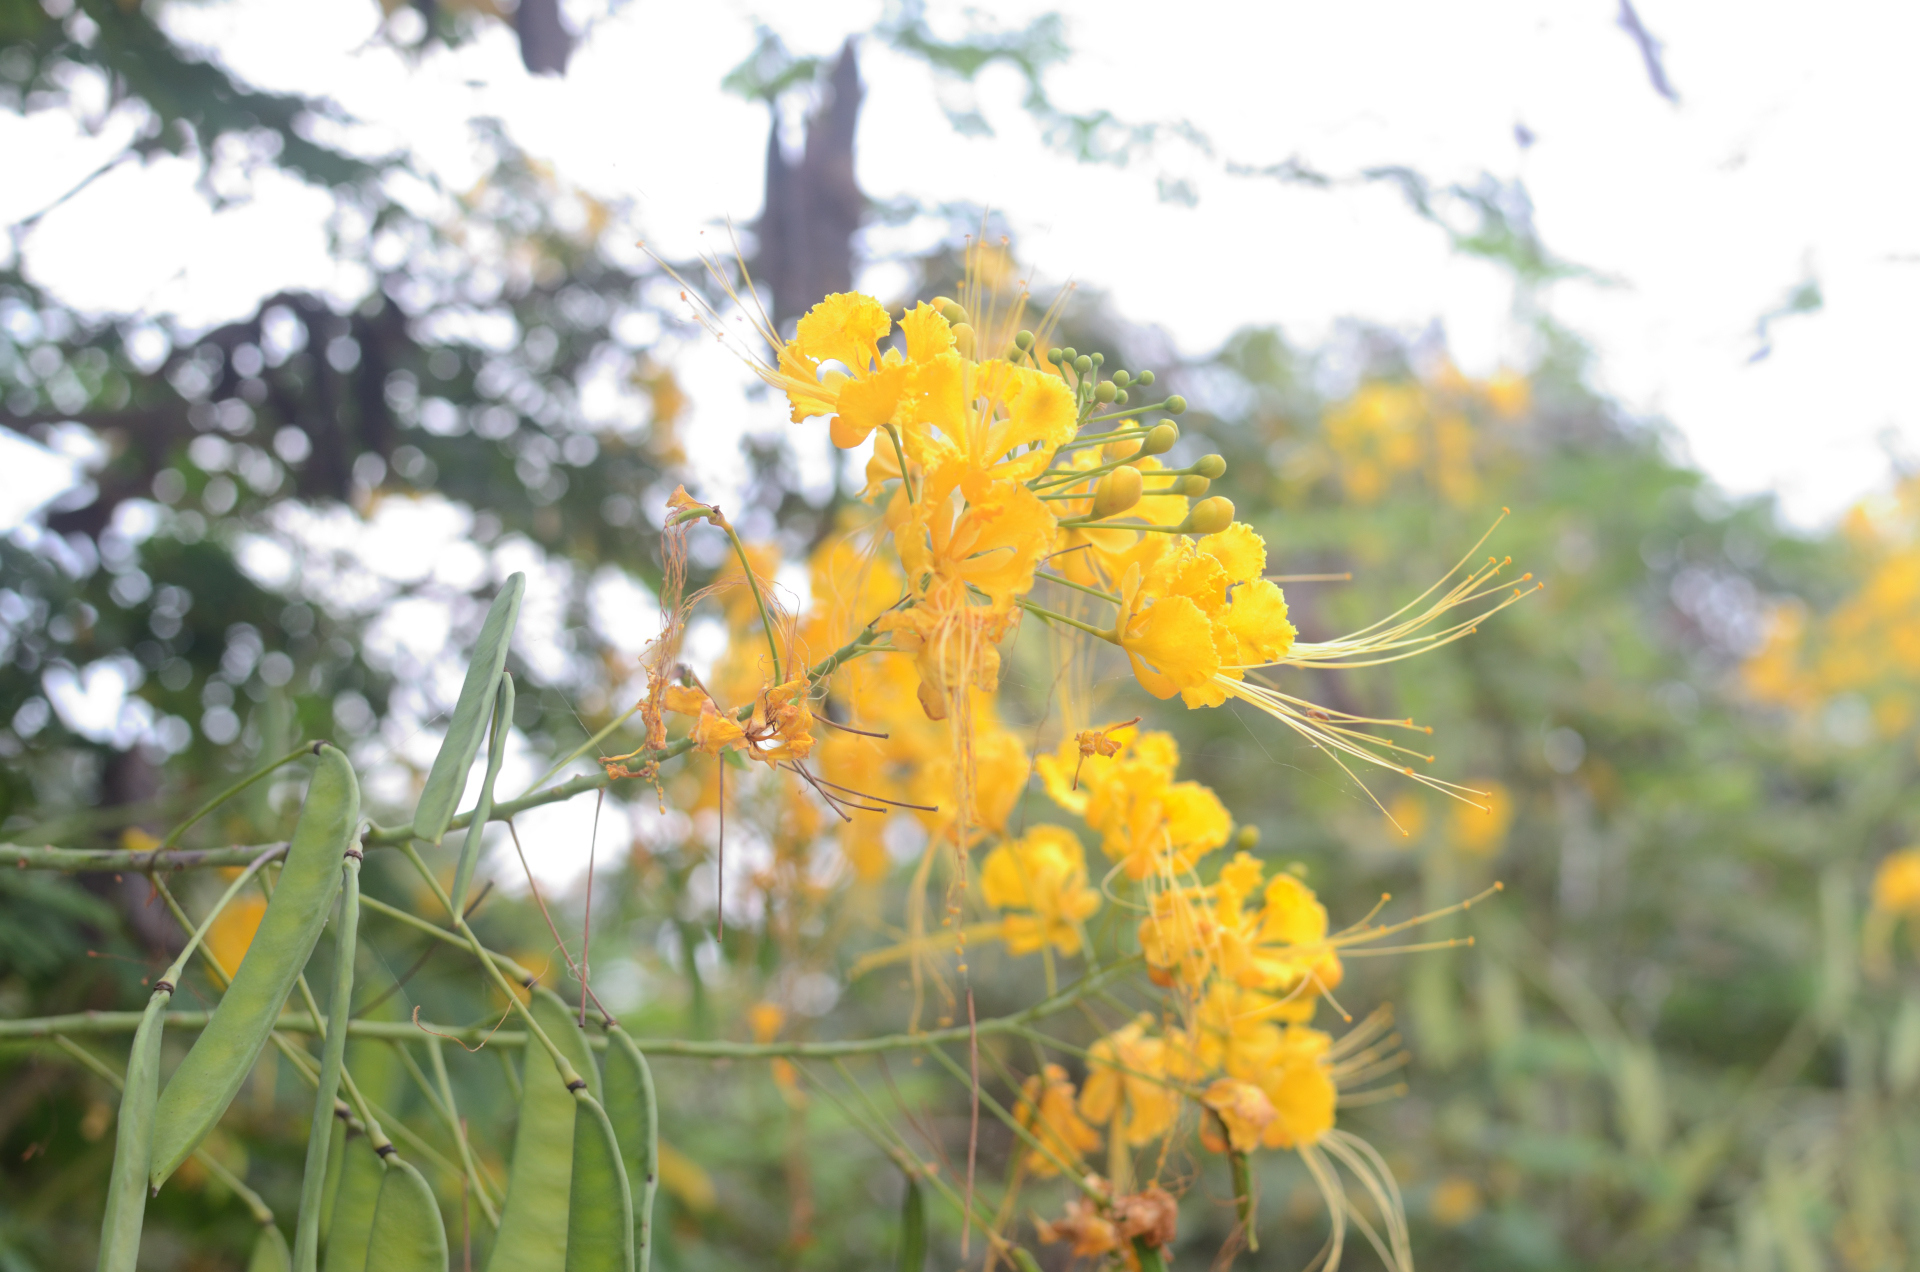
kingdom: Plantae
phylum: Tracheophyta
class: Magnoliopsida
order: Fabales
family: Fabaceae
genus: Caesalpinia
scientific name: Caesalpinia pulcherrima
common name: Pride-of-barbados
